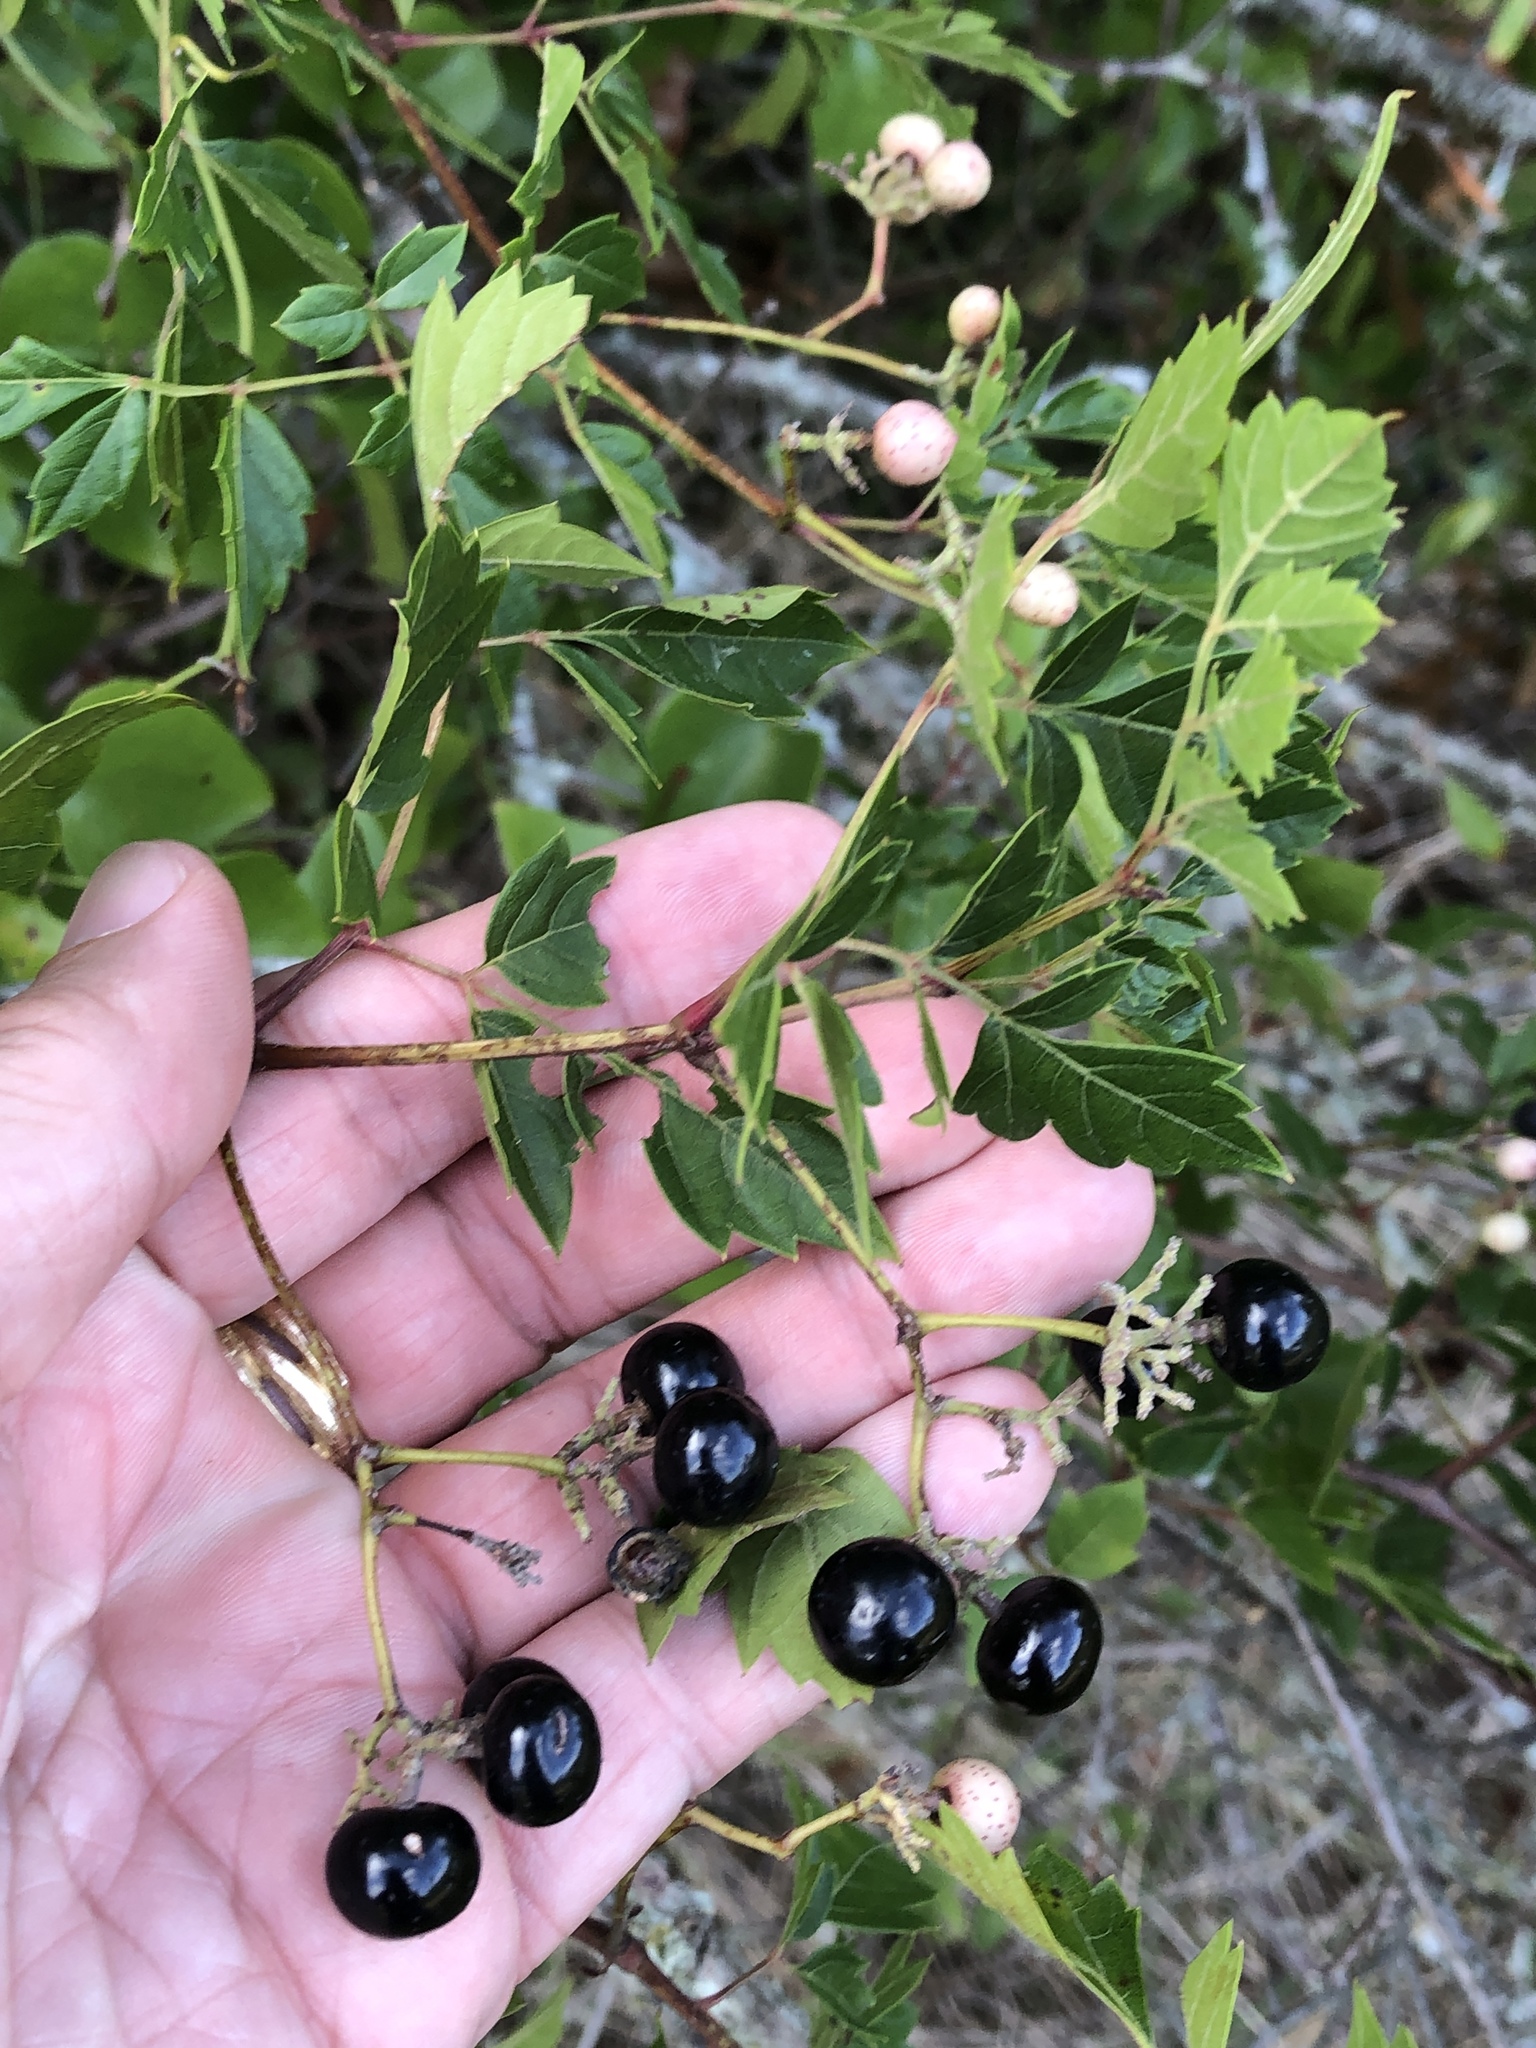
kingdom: Plantae
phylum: Tracheophyta
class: Magnoliopsida
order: Vitales
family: Vitaceae
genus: Nekemias
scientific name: Nekemias arborea
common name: Peppervine
